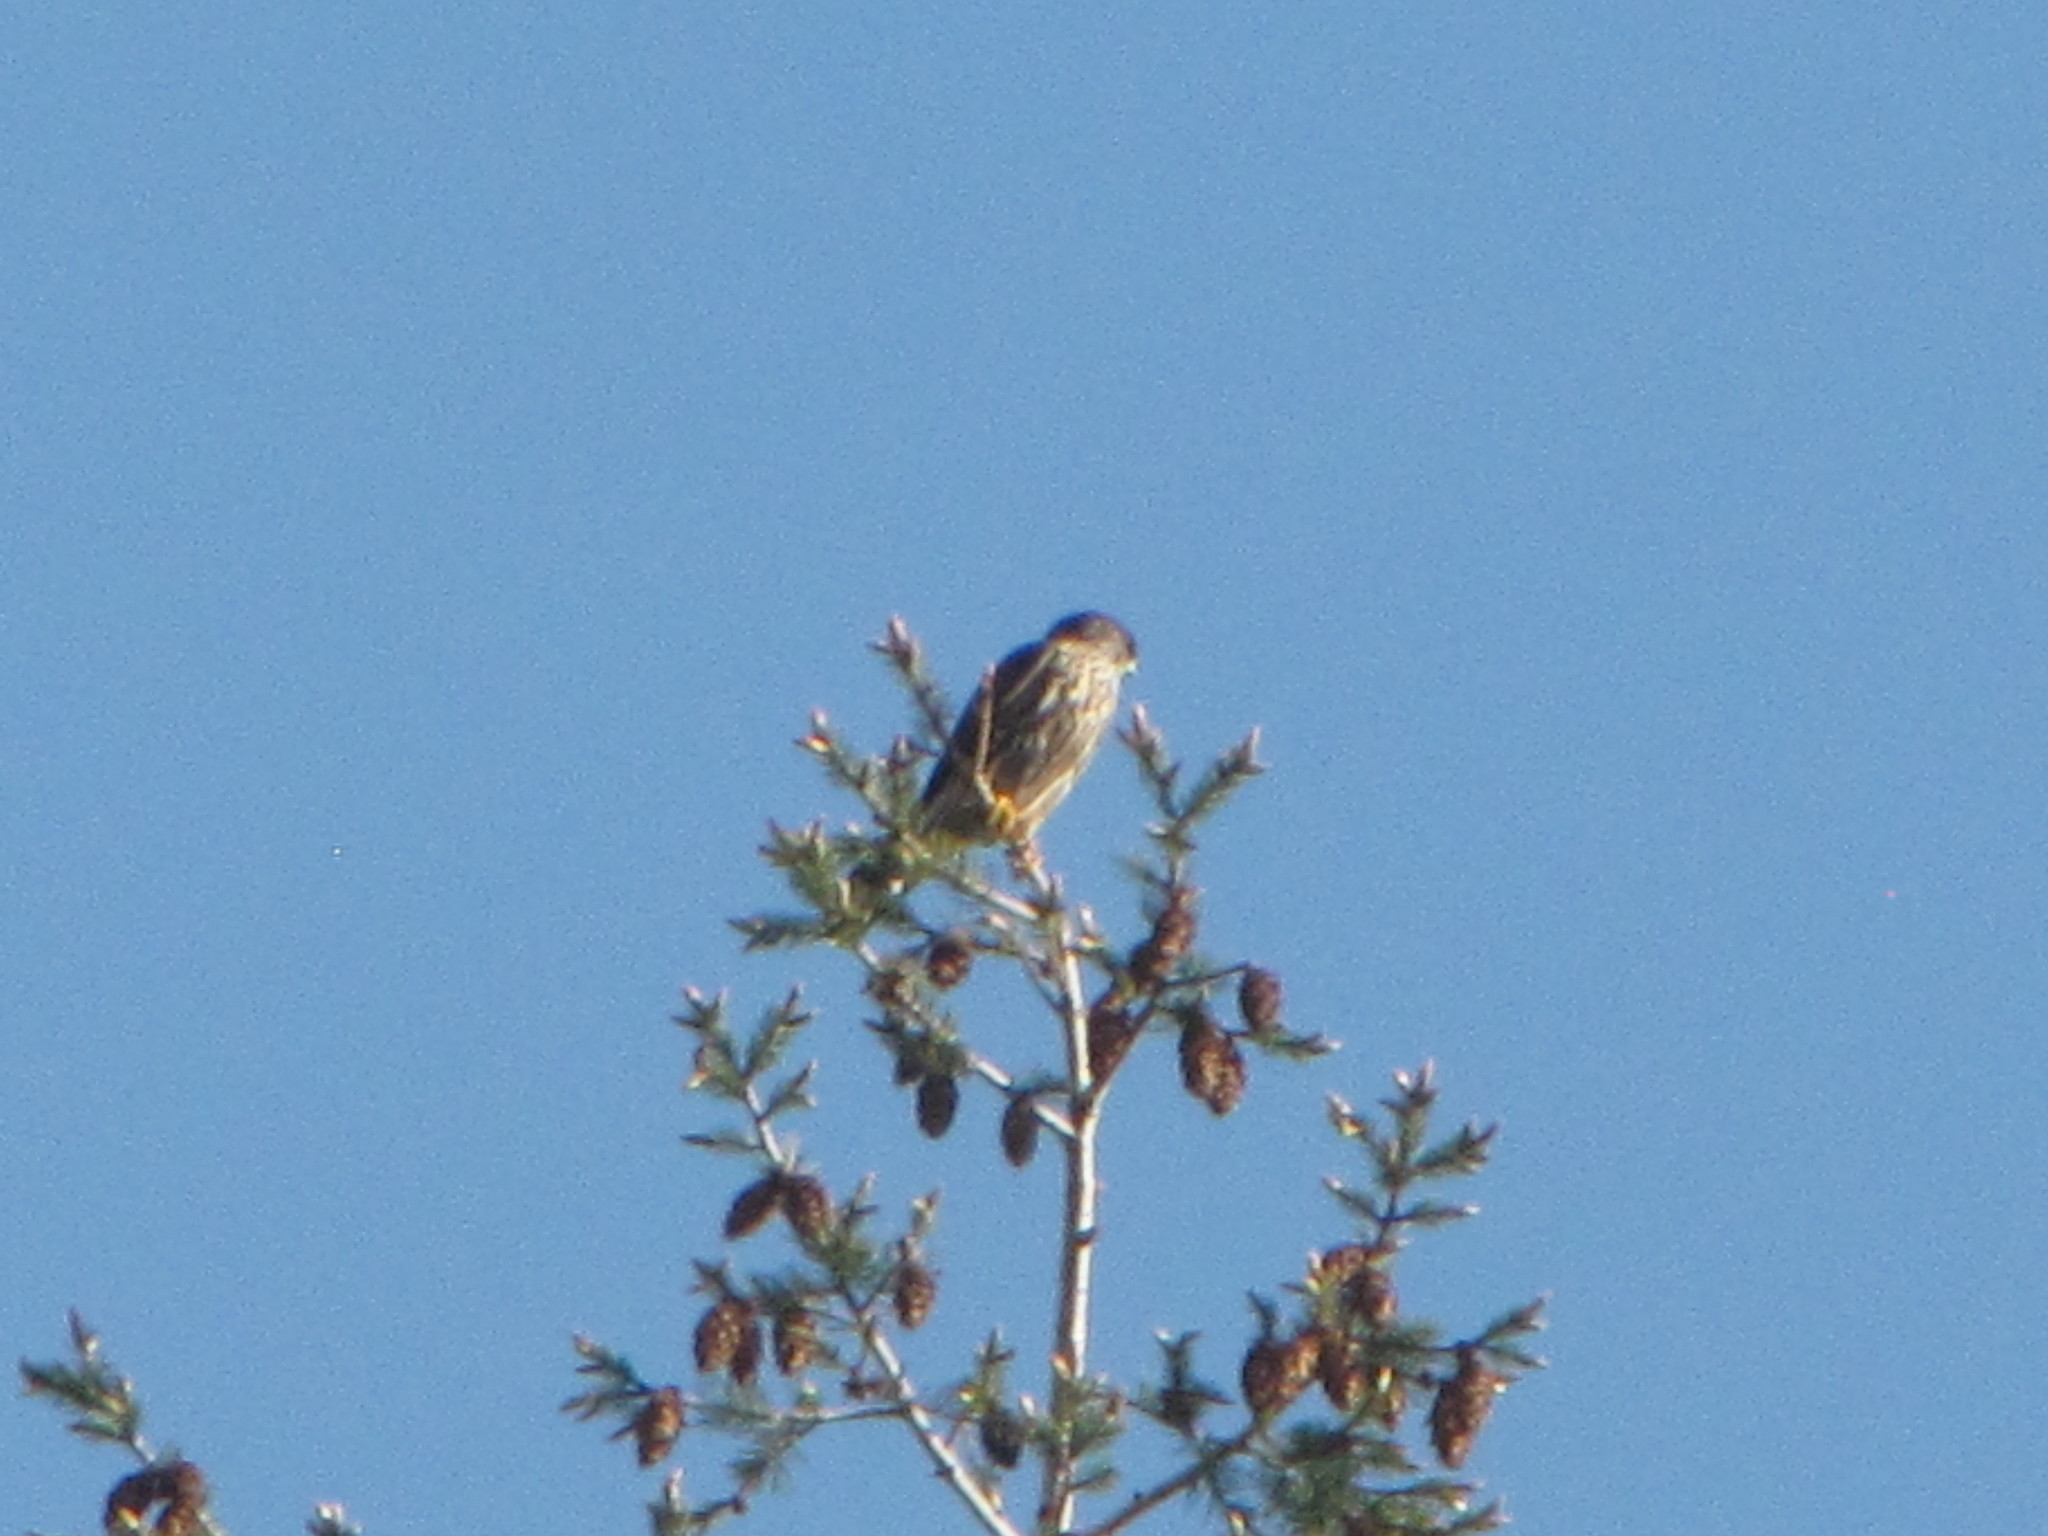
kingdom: Animalia
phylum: Chordata
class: Aves
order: Falconiformes
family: Falconidae
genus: Falco
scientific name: Falco columbarius
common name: Merlin
